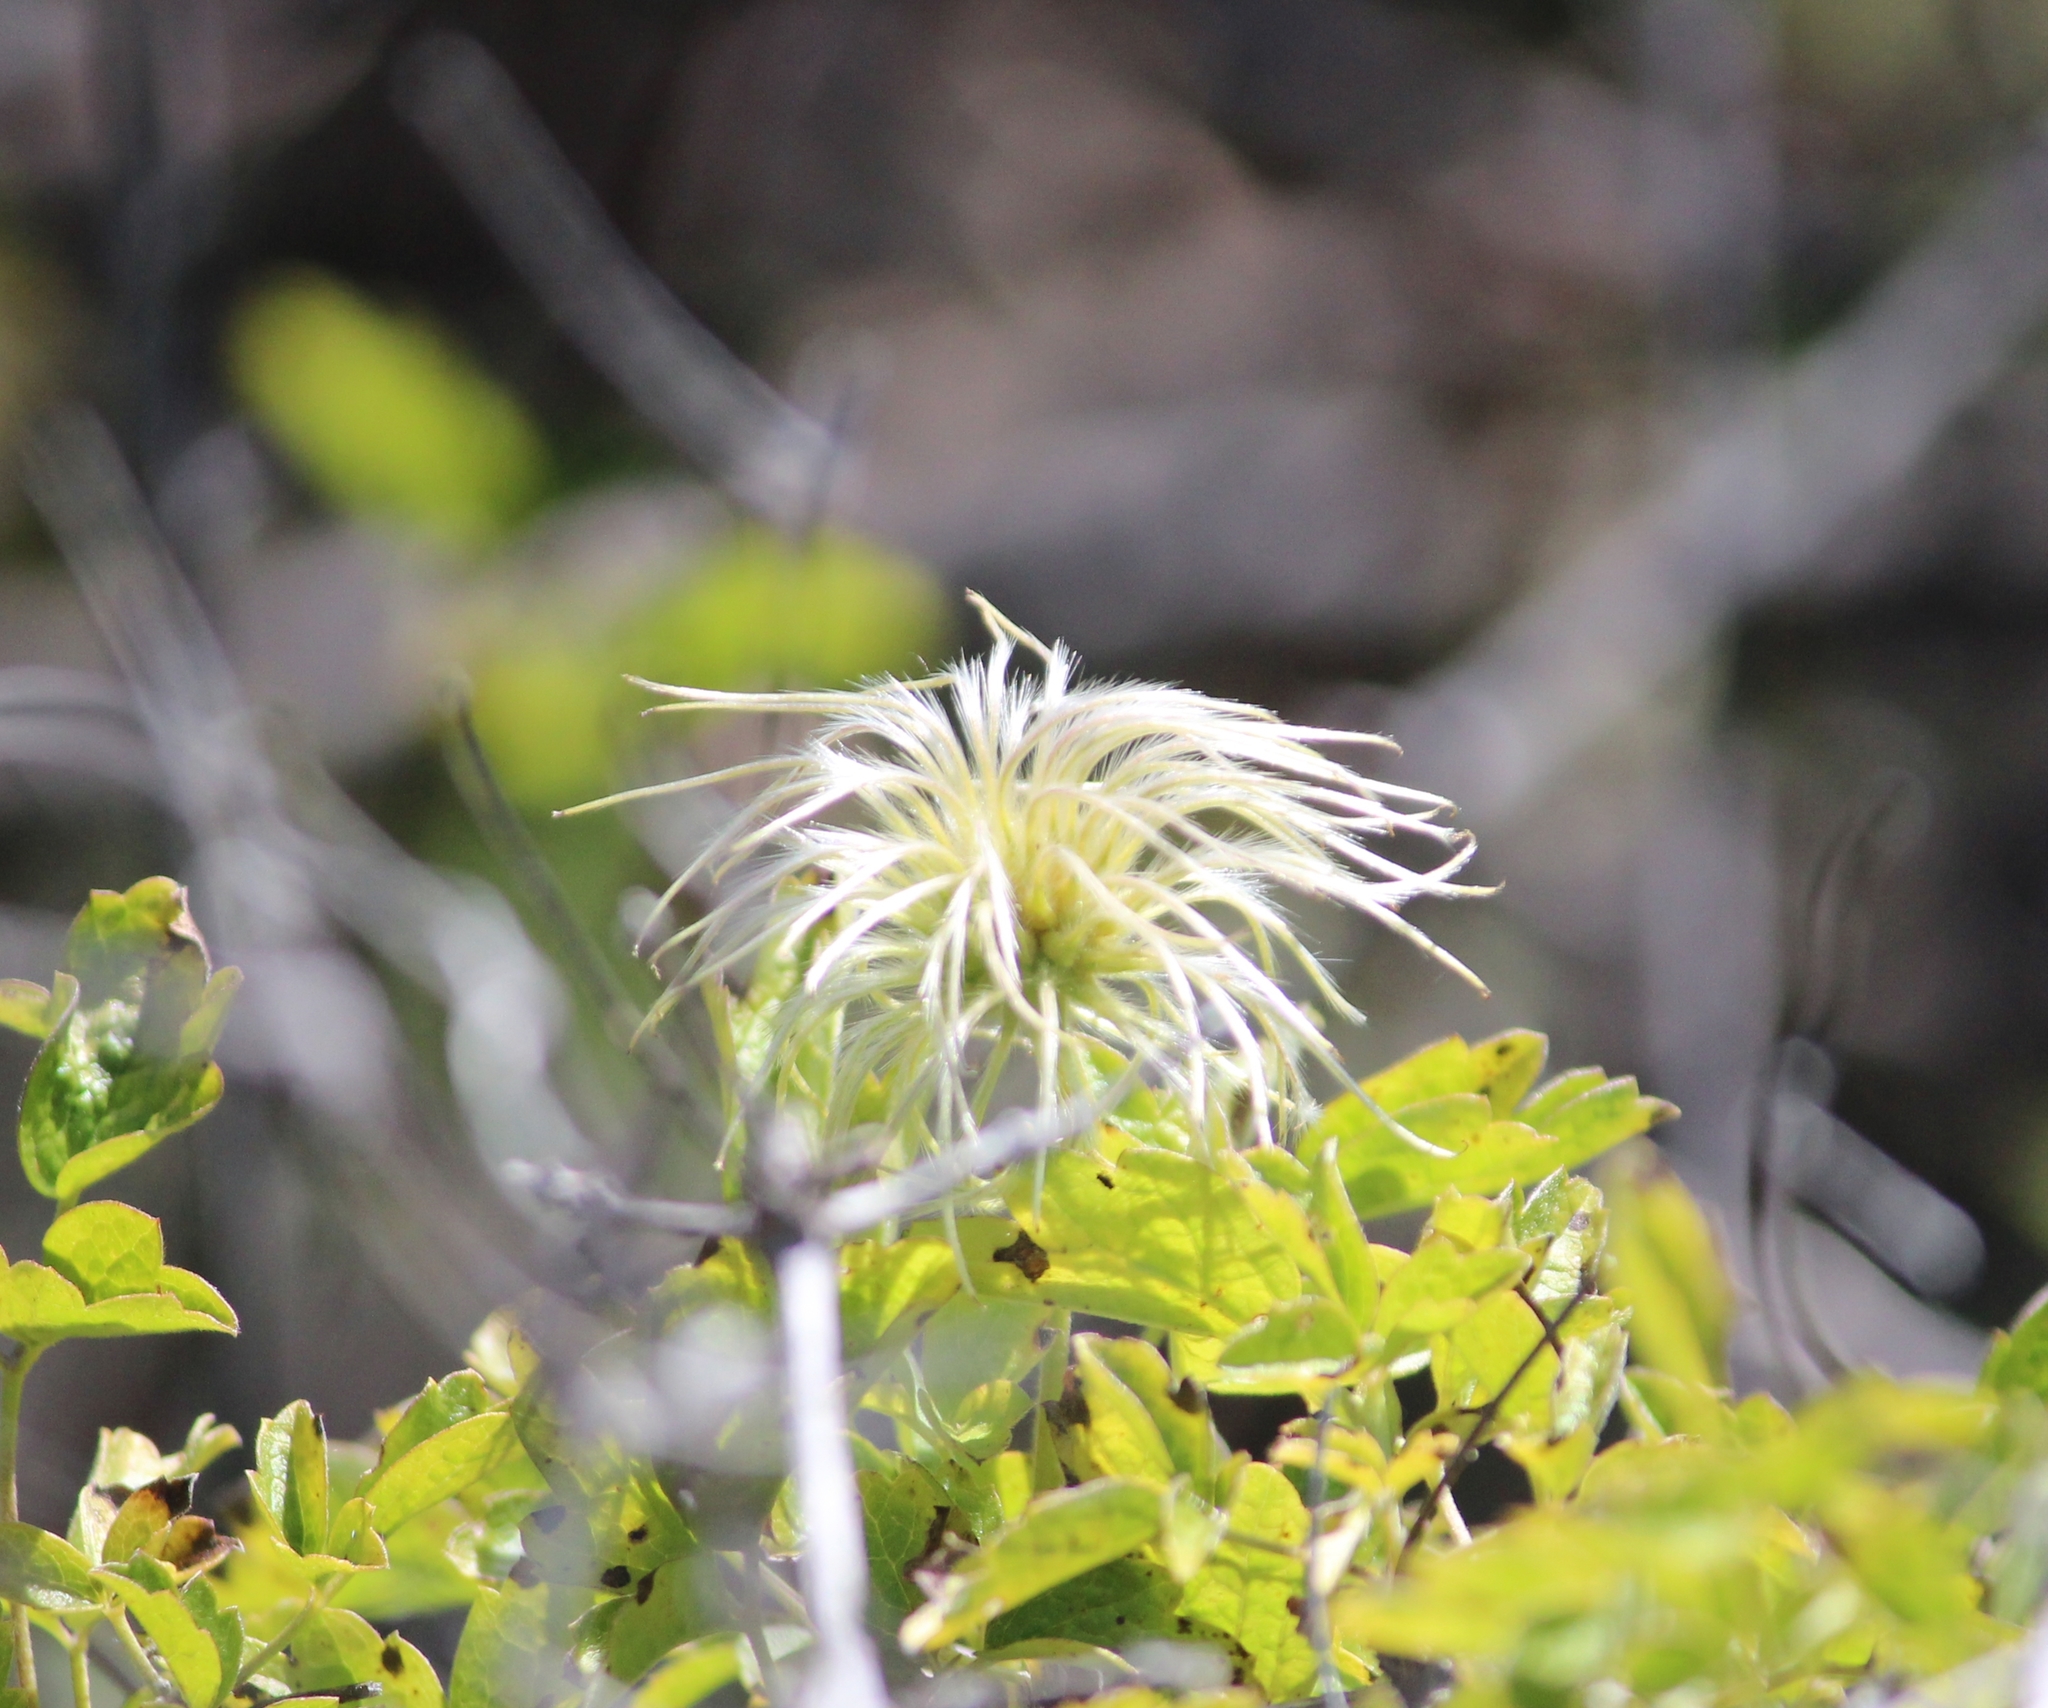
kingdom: Plantae
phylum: Tracheophyta
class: Magnoliopsida
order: Ranunculales
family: Ranunculaceae
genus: Clematis
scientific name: Clematis lasiantha
